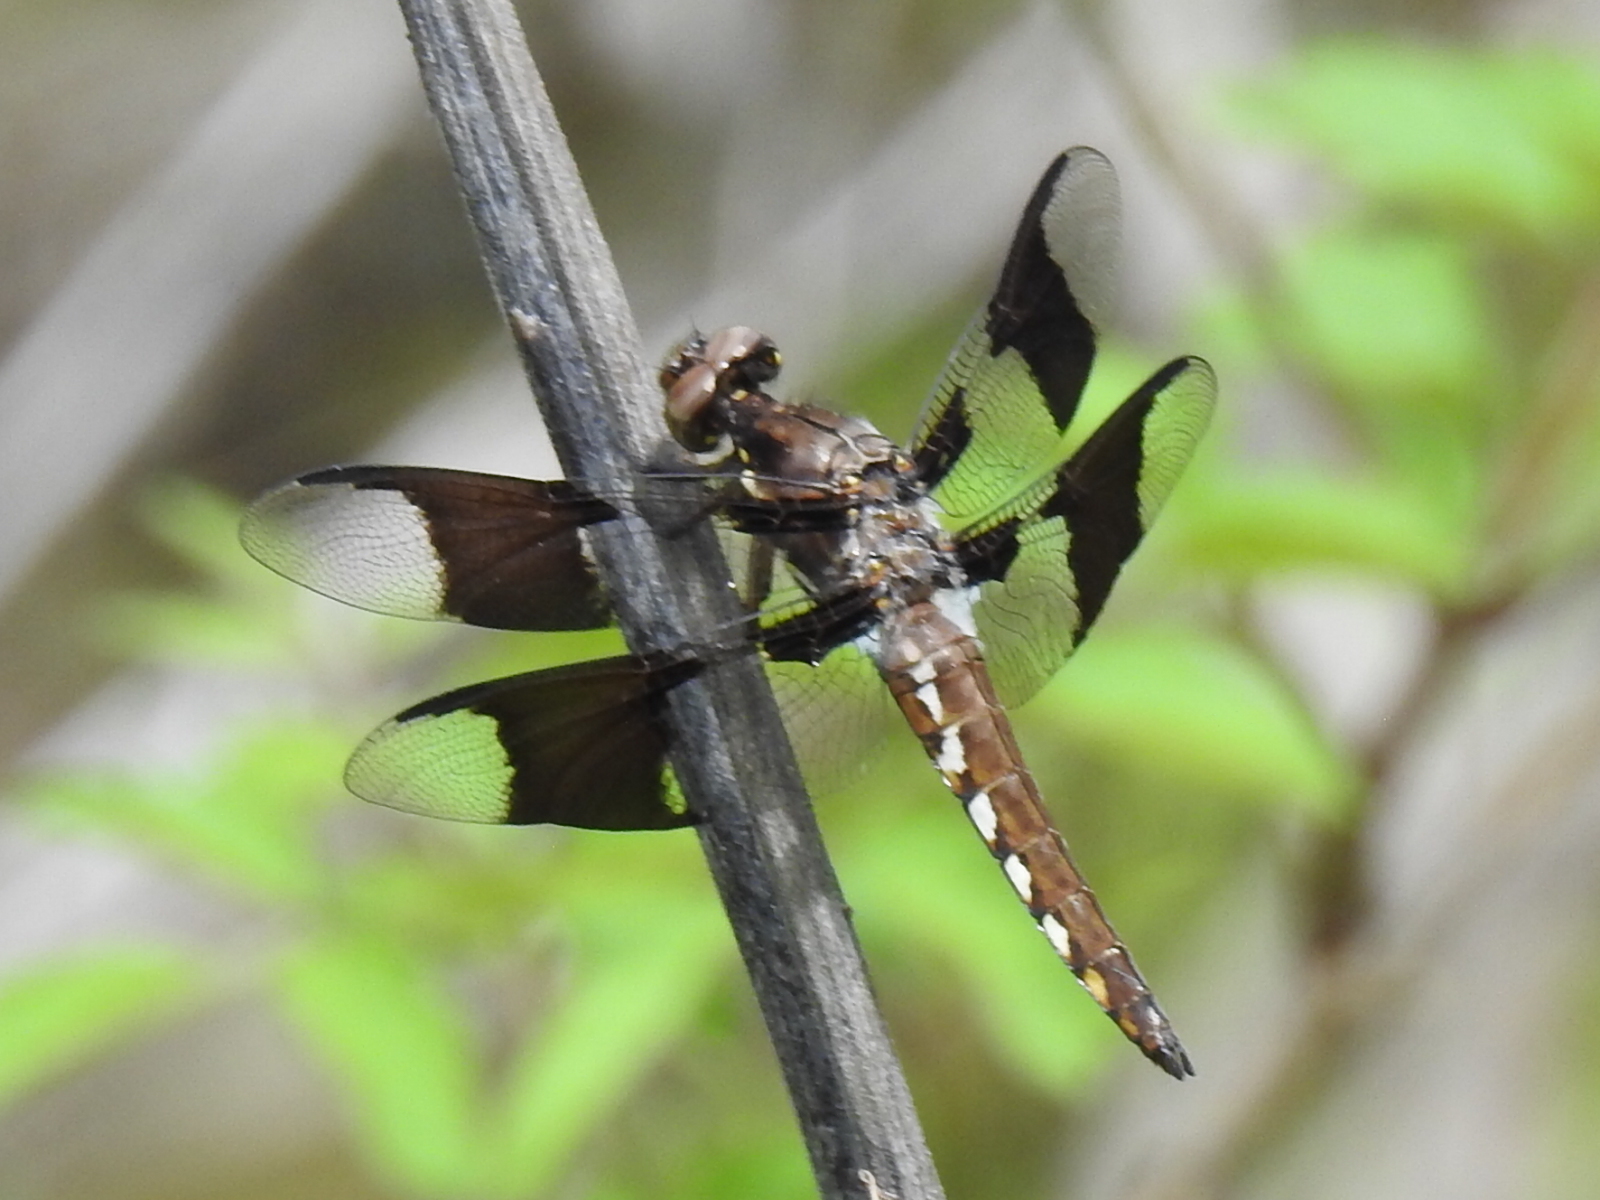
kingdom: Animalia
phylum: Arthropoda
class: Insecta
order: Odonata
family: Libellulidae
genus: Plathemis
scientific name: Plathemis lydia
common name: Common whitetail
